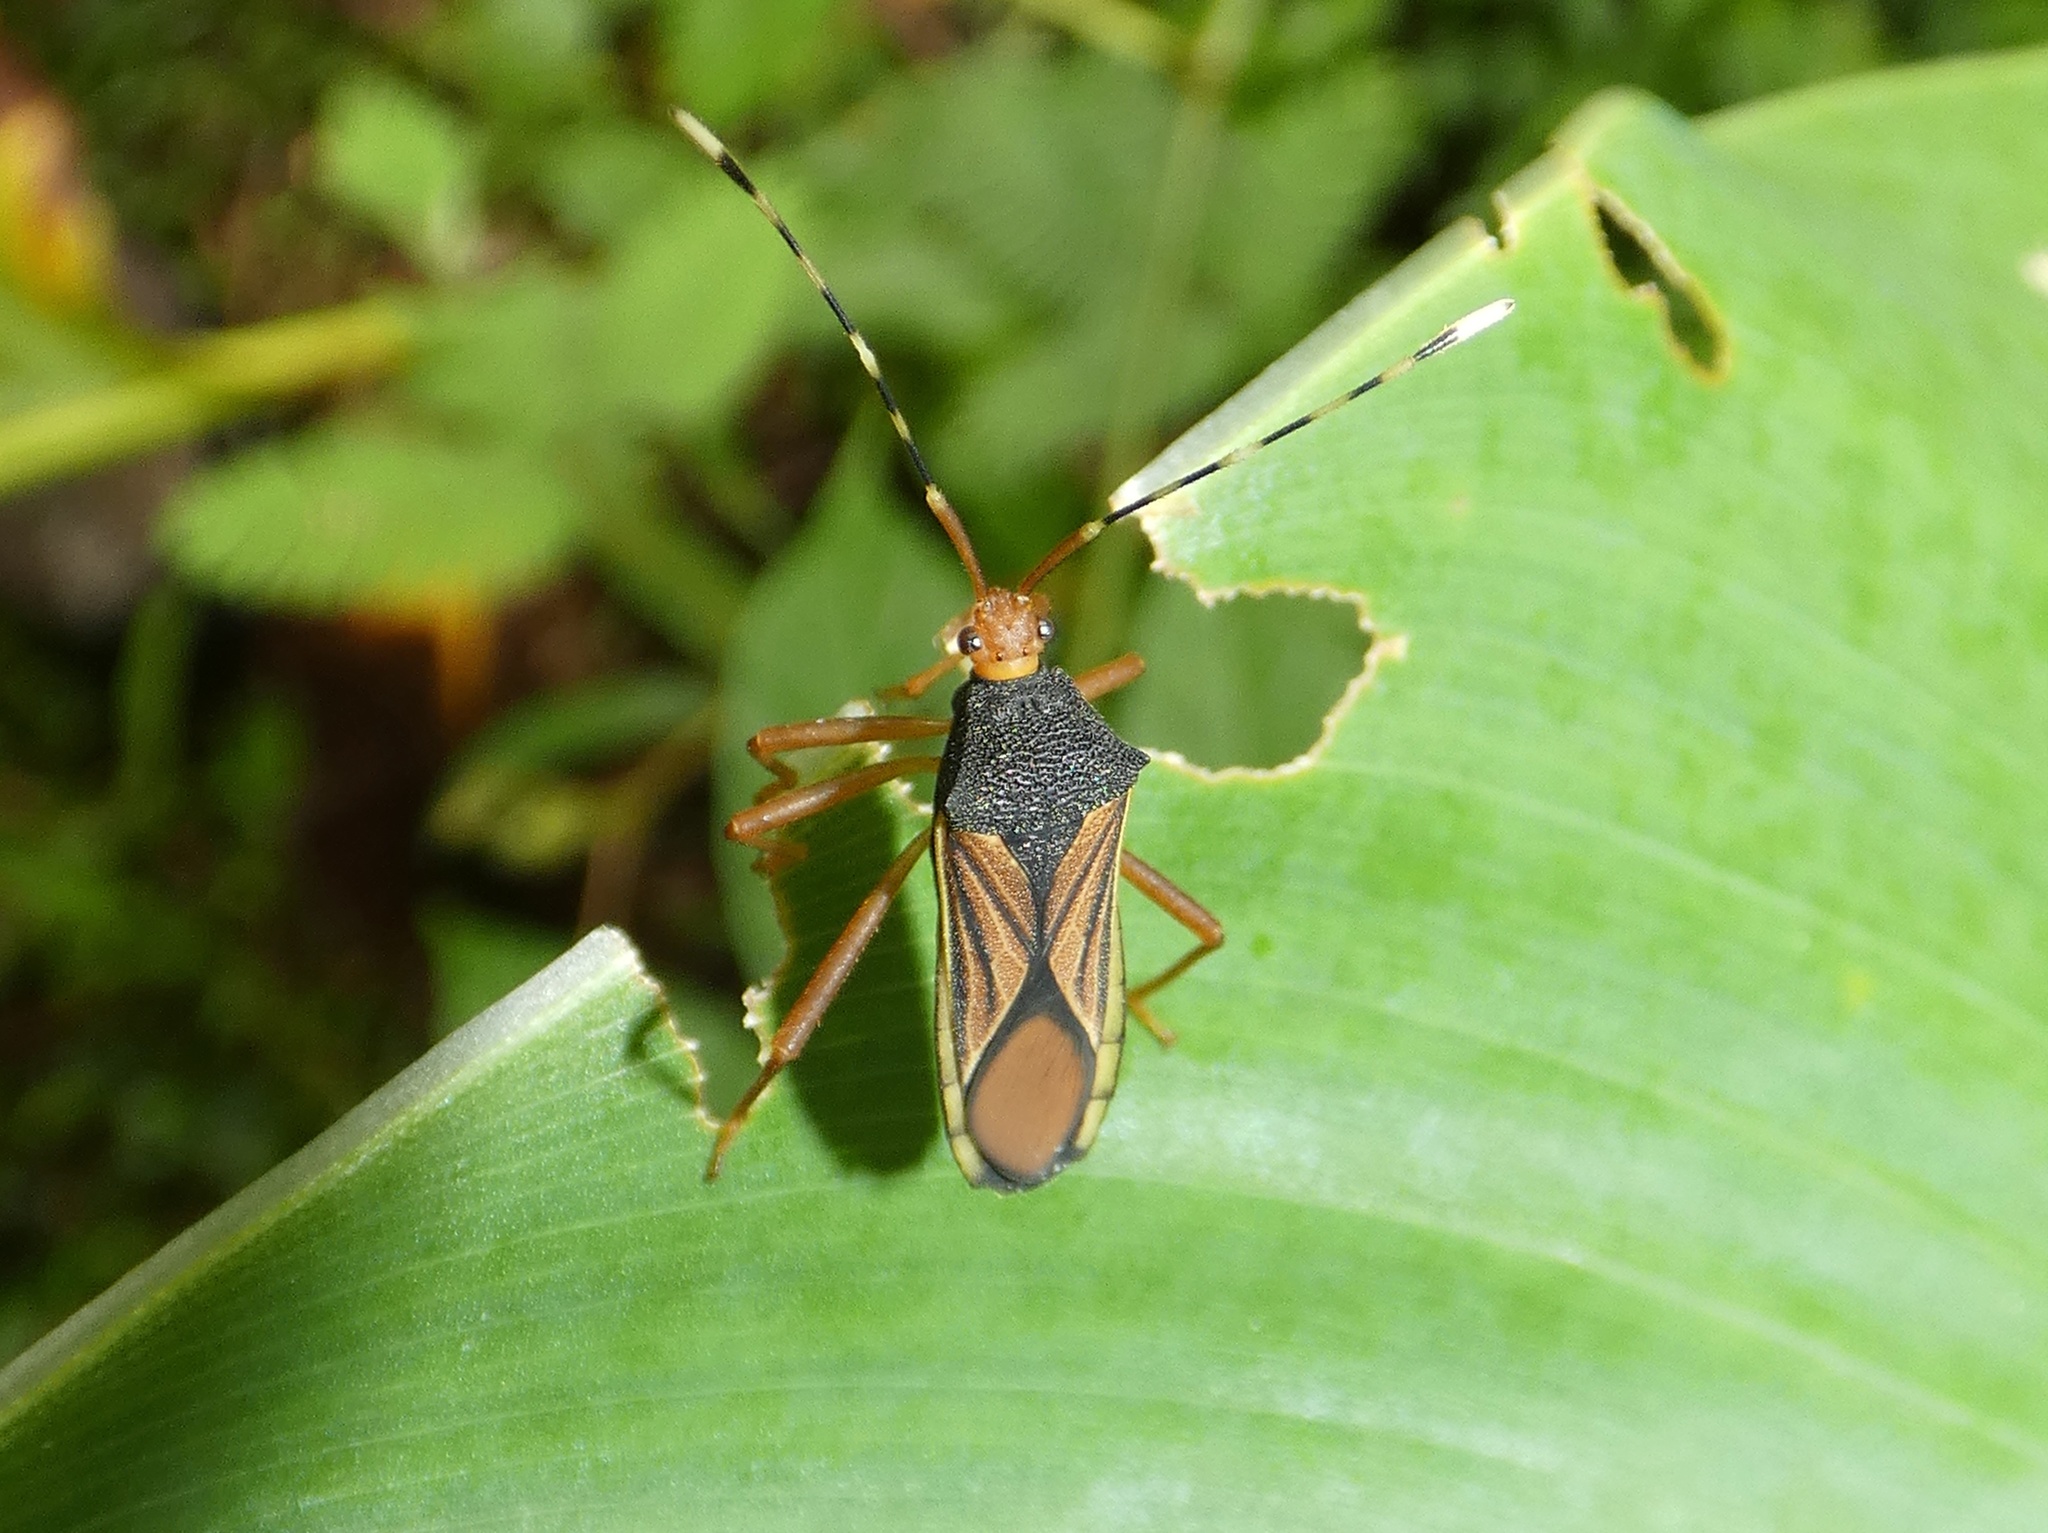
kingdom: Animalia
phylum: Arthropoda
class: Insecta
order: Hemiptera
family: Coreidae
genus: Anasa
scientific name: Anasa nigricollis
